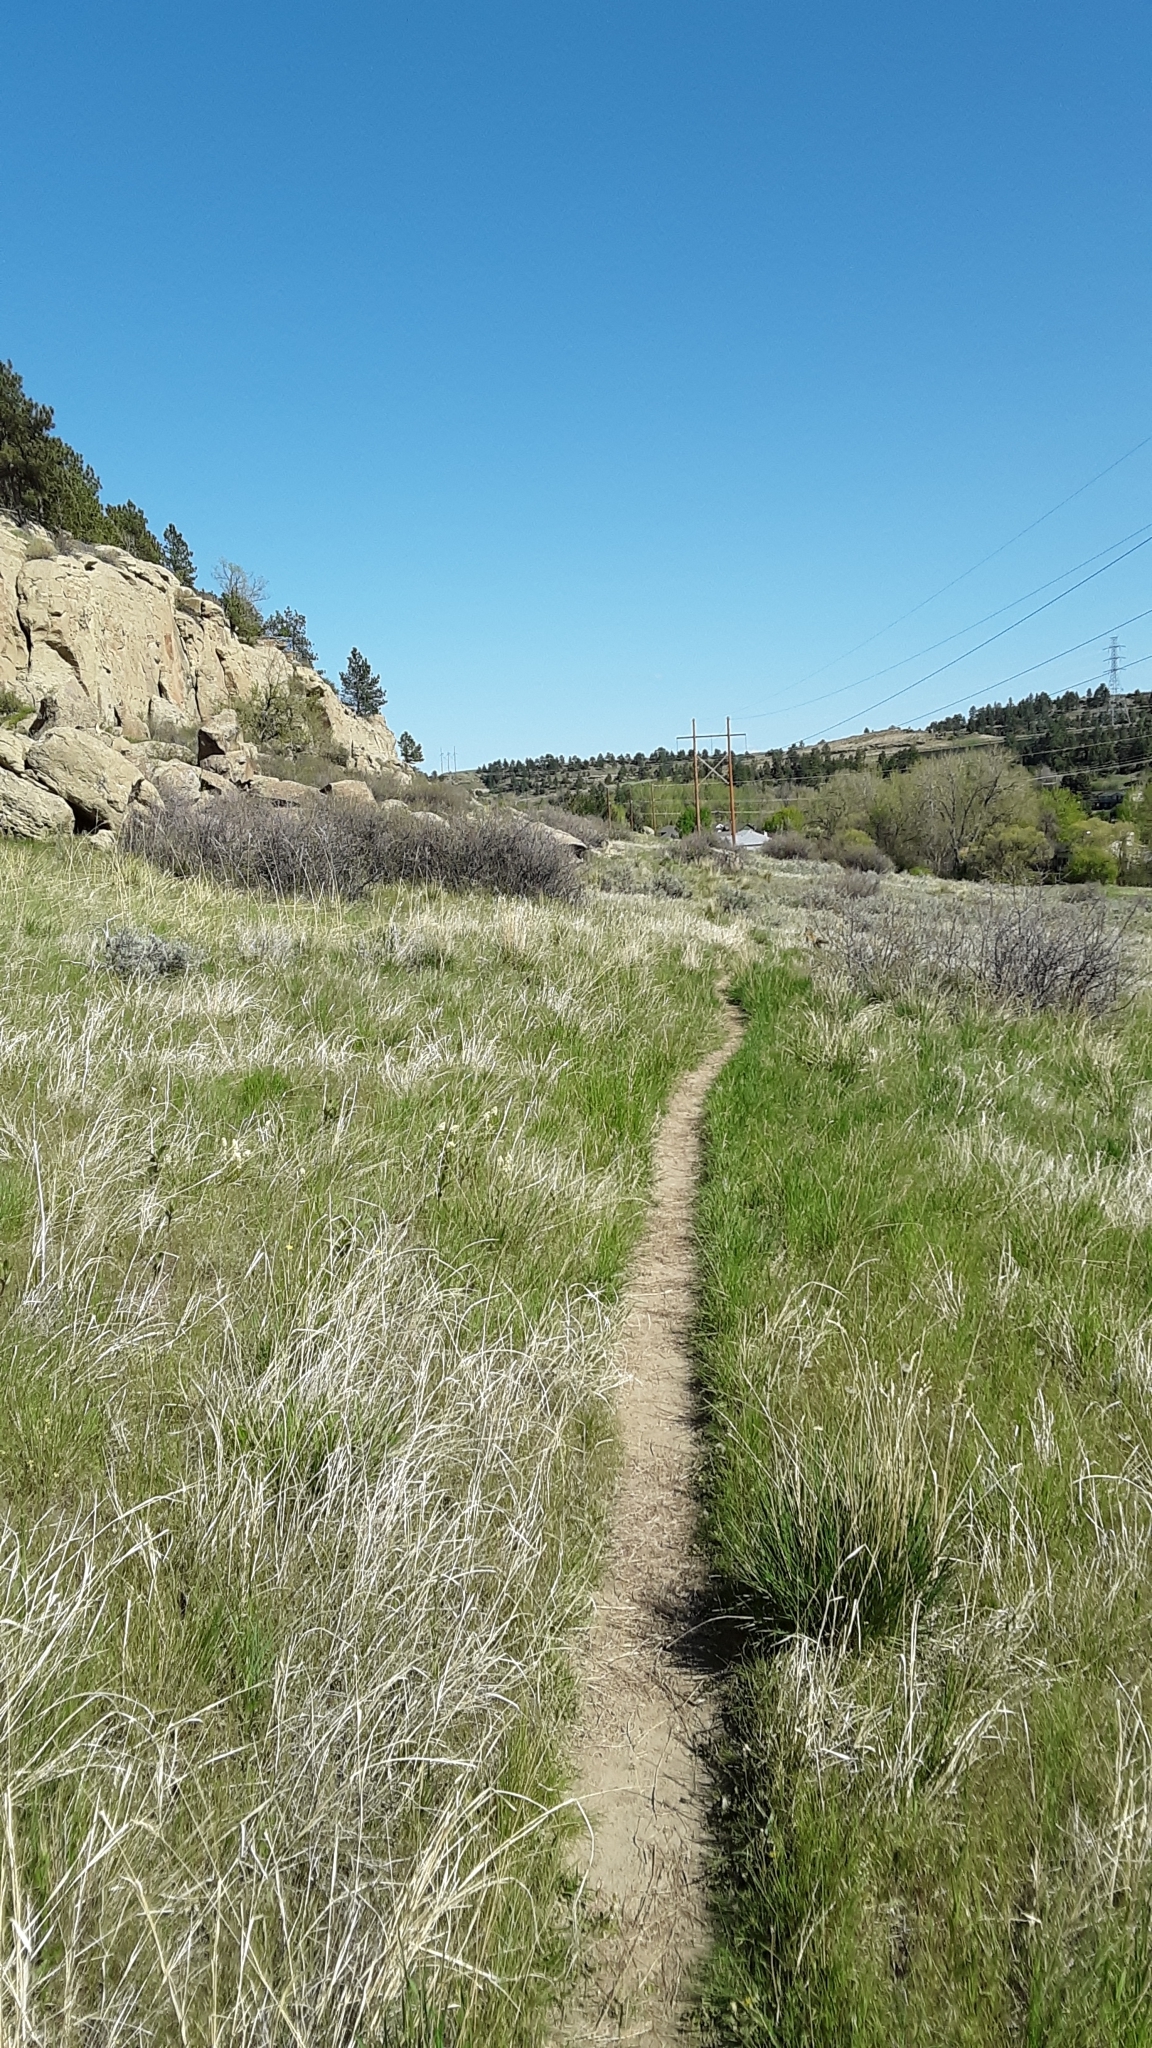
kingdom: Animalia
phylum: Chordata
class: Mammalia
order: Carnivora
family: Canidae
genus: Vulpes
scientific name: Vulpes vulpes
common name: Red fox
